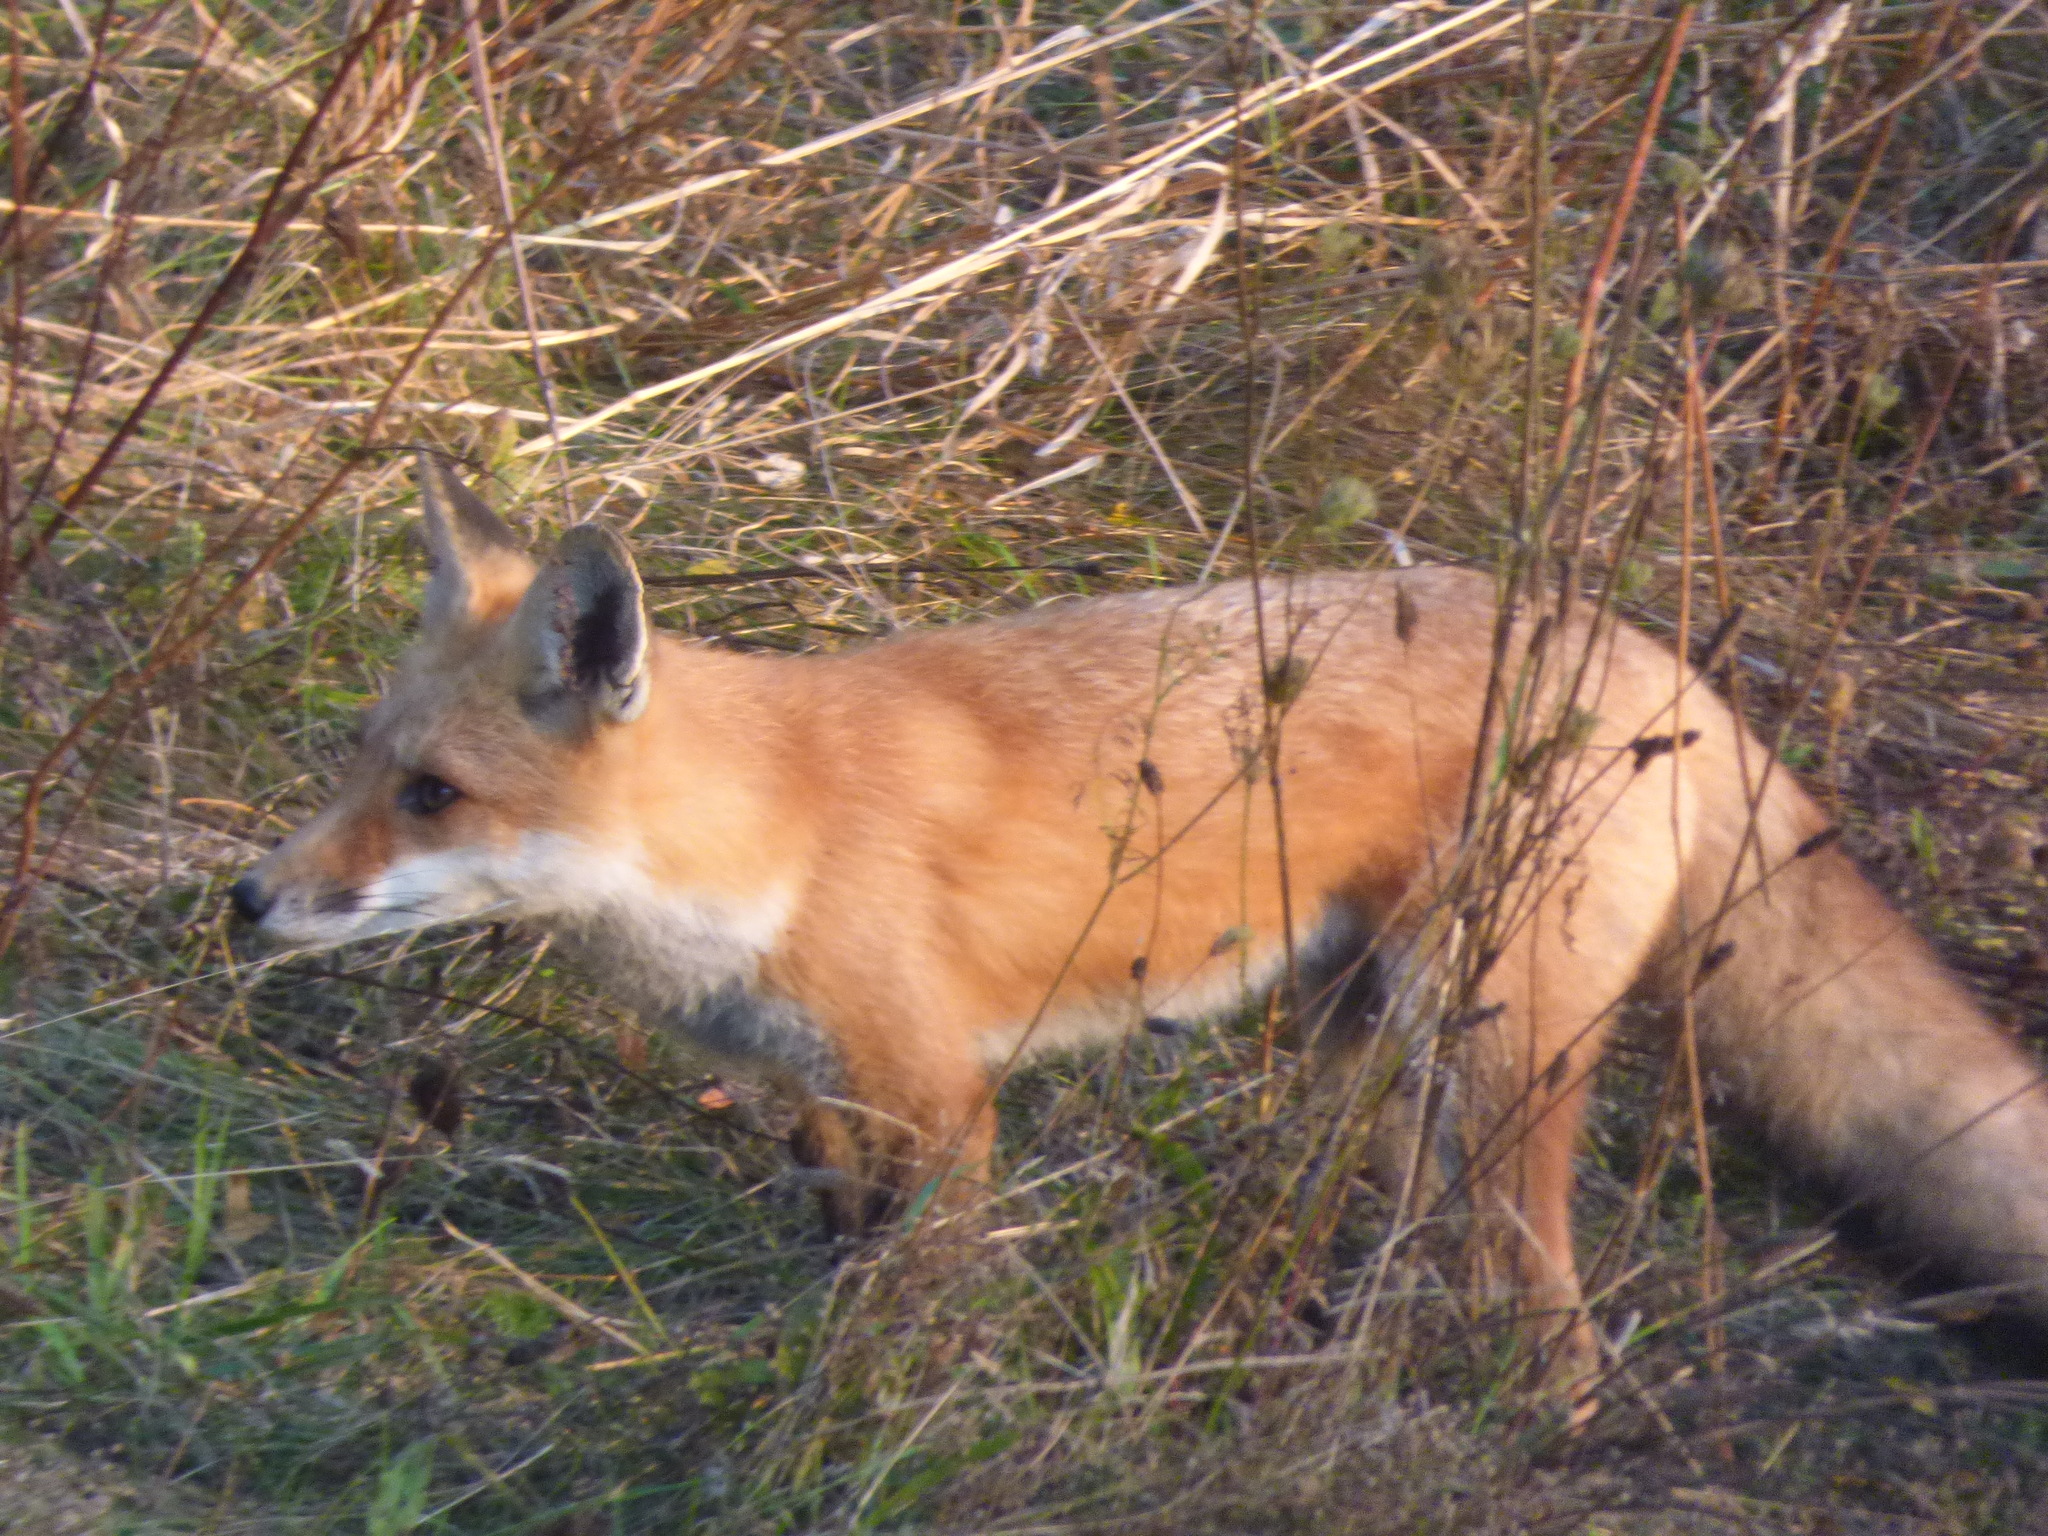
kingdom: Animalia
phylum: Chordata
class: Mammalia
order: Carnivora
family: Canidae
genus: Vulpes
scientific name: Vulpes vulpes
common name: Red fox
